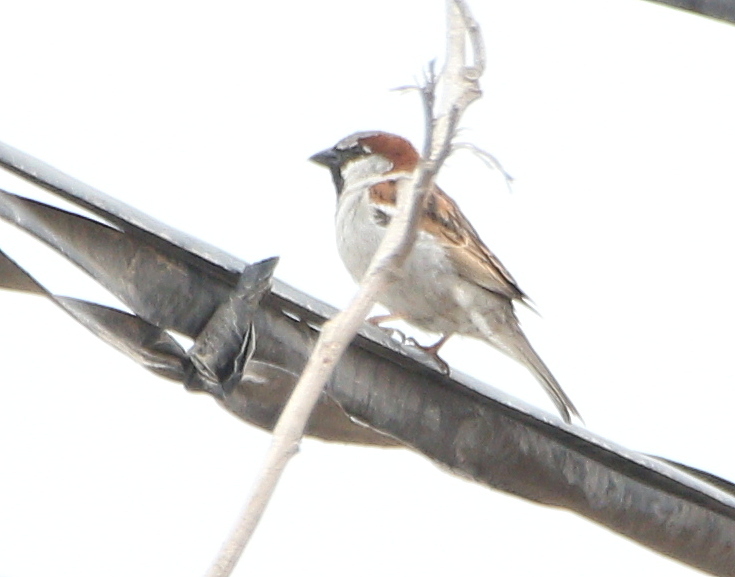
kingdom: Animalia
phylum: Chordata
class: Aves
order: Passeriformes
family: Passeridae
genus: Passer
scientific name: Passer domesticus
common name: House sparrow
